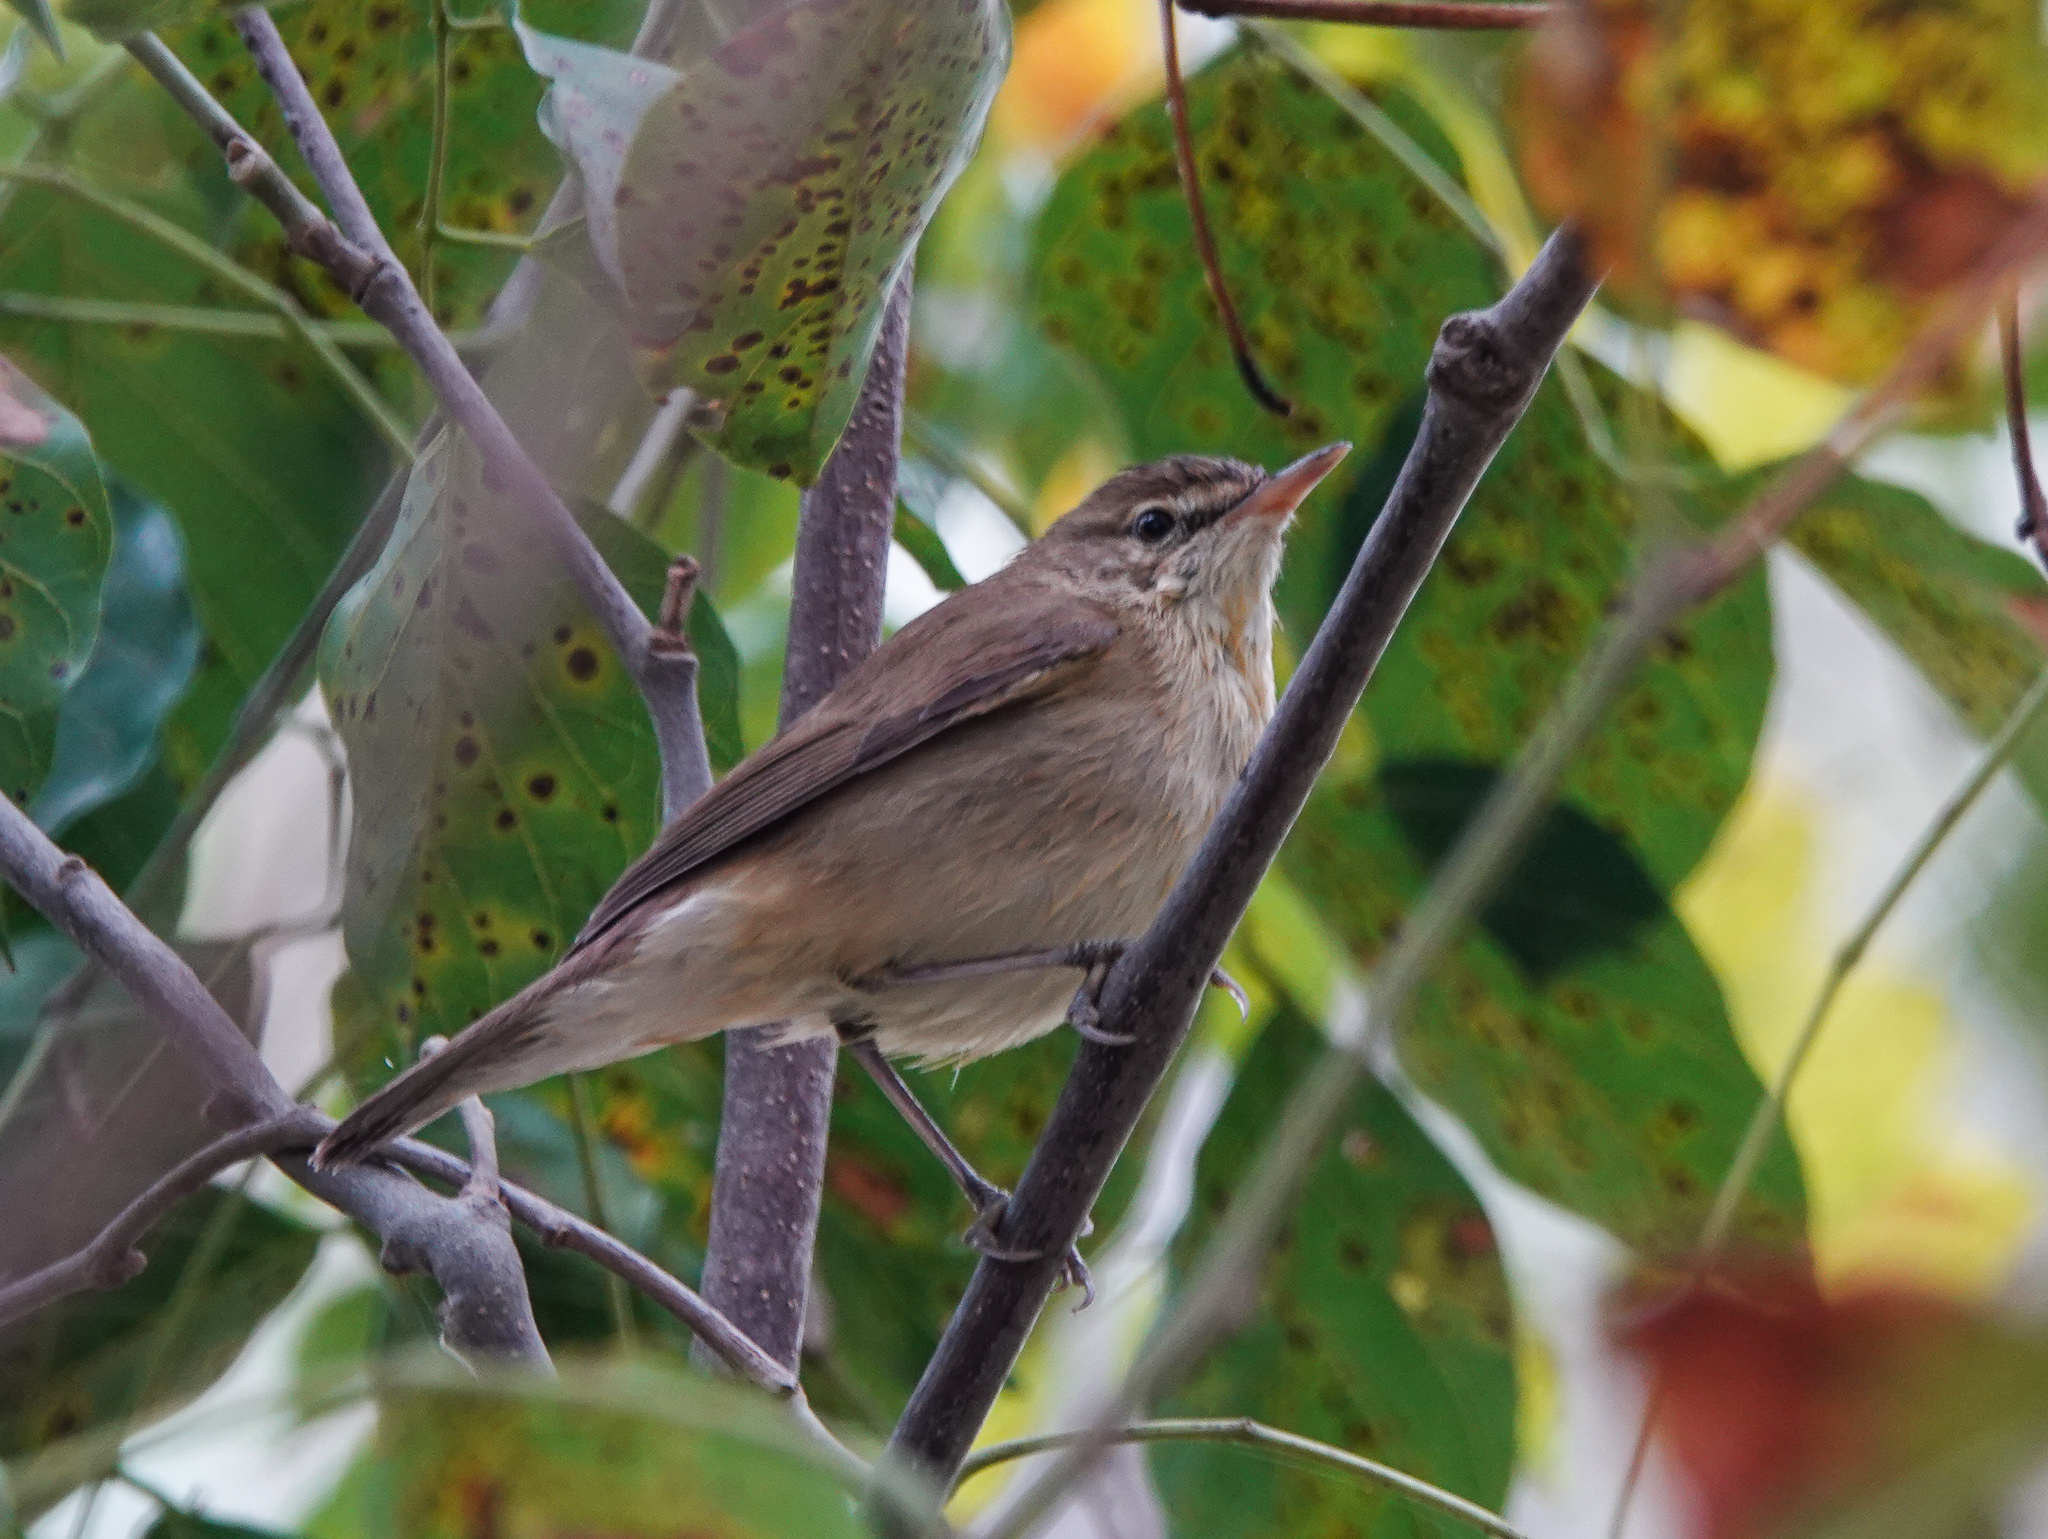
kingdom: Animalia
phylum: Chordata
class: Aves
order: Passeriformes
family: Acrocephalidae
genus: Acrocephalus
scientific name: Acrocephalus dumetorum
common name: Blyth's reed warbler
